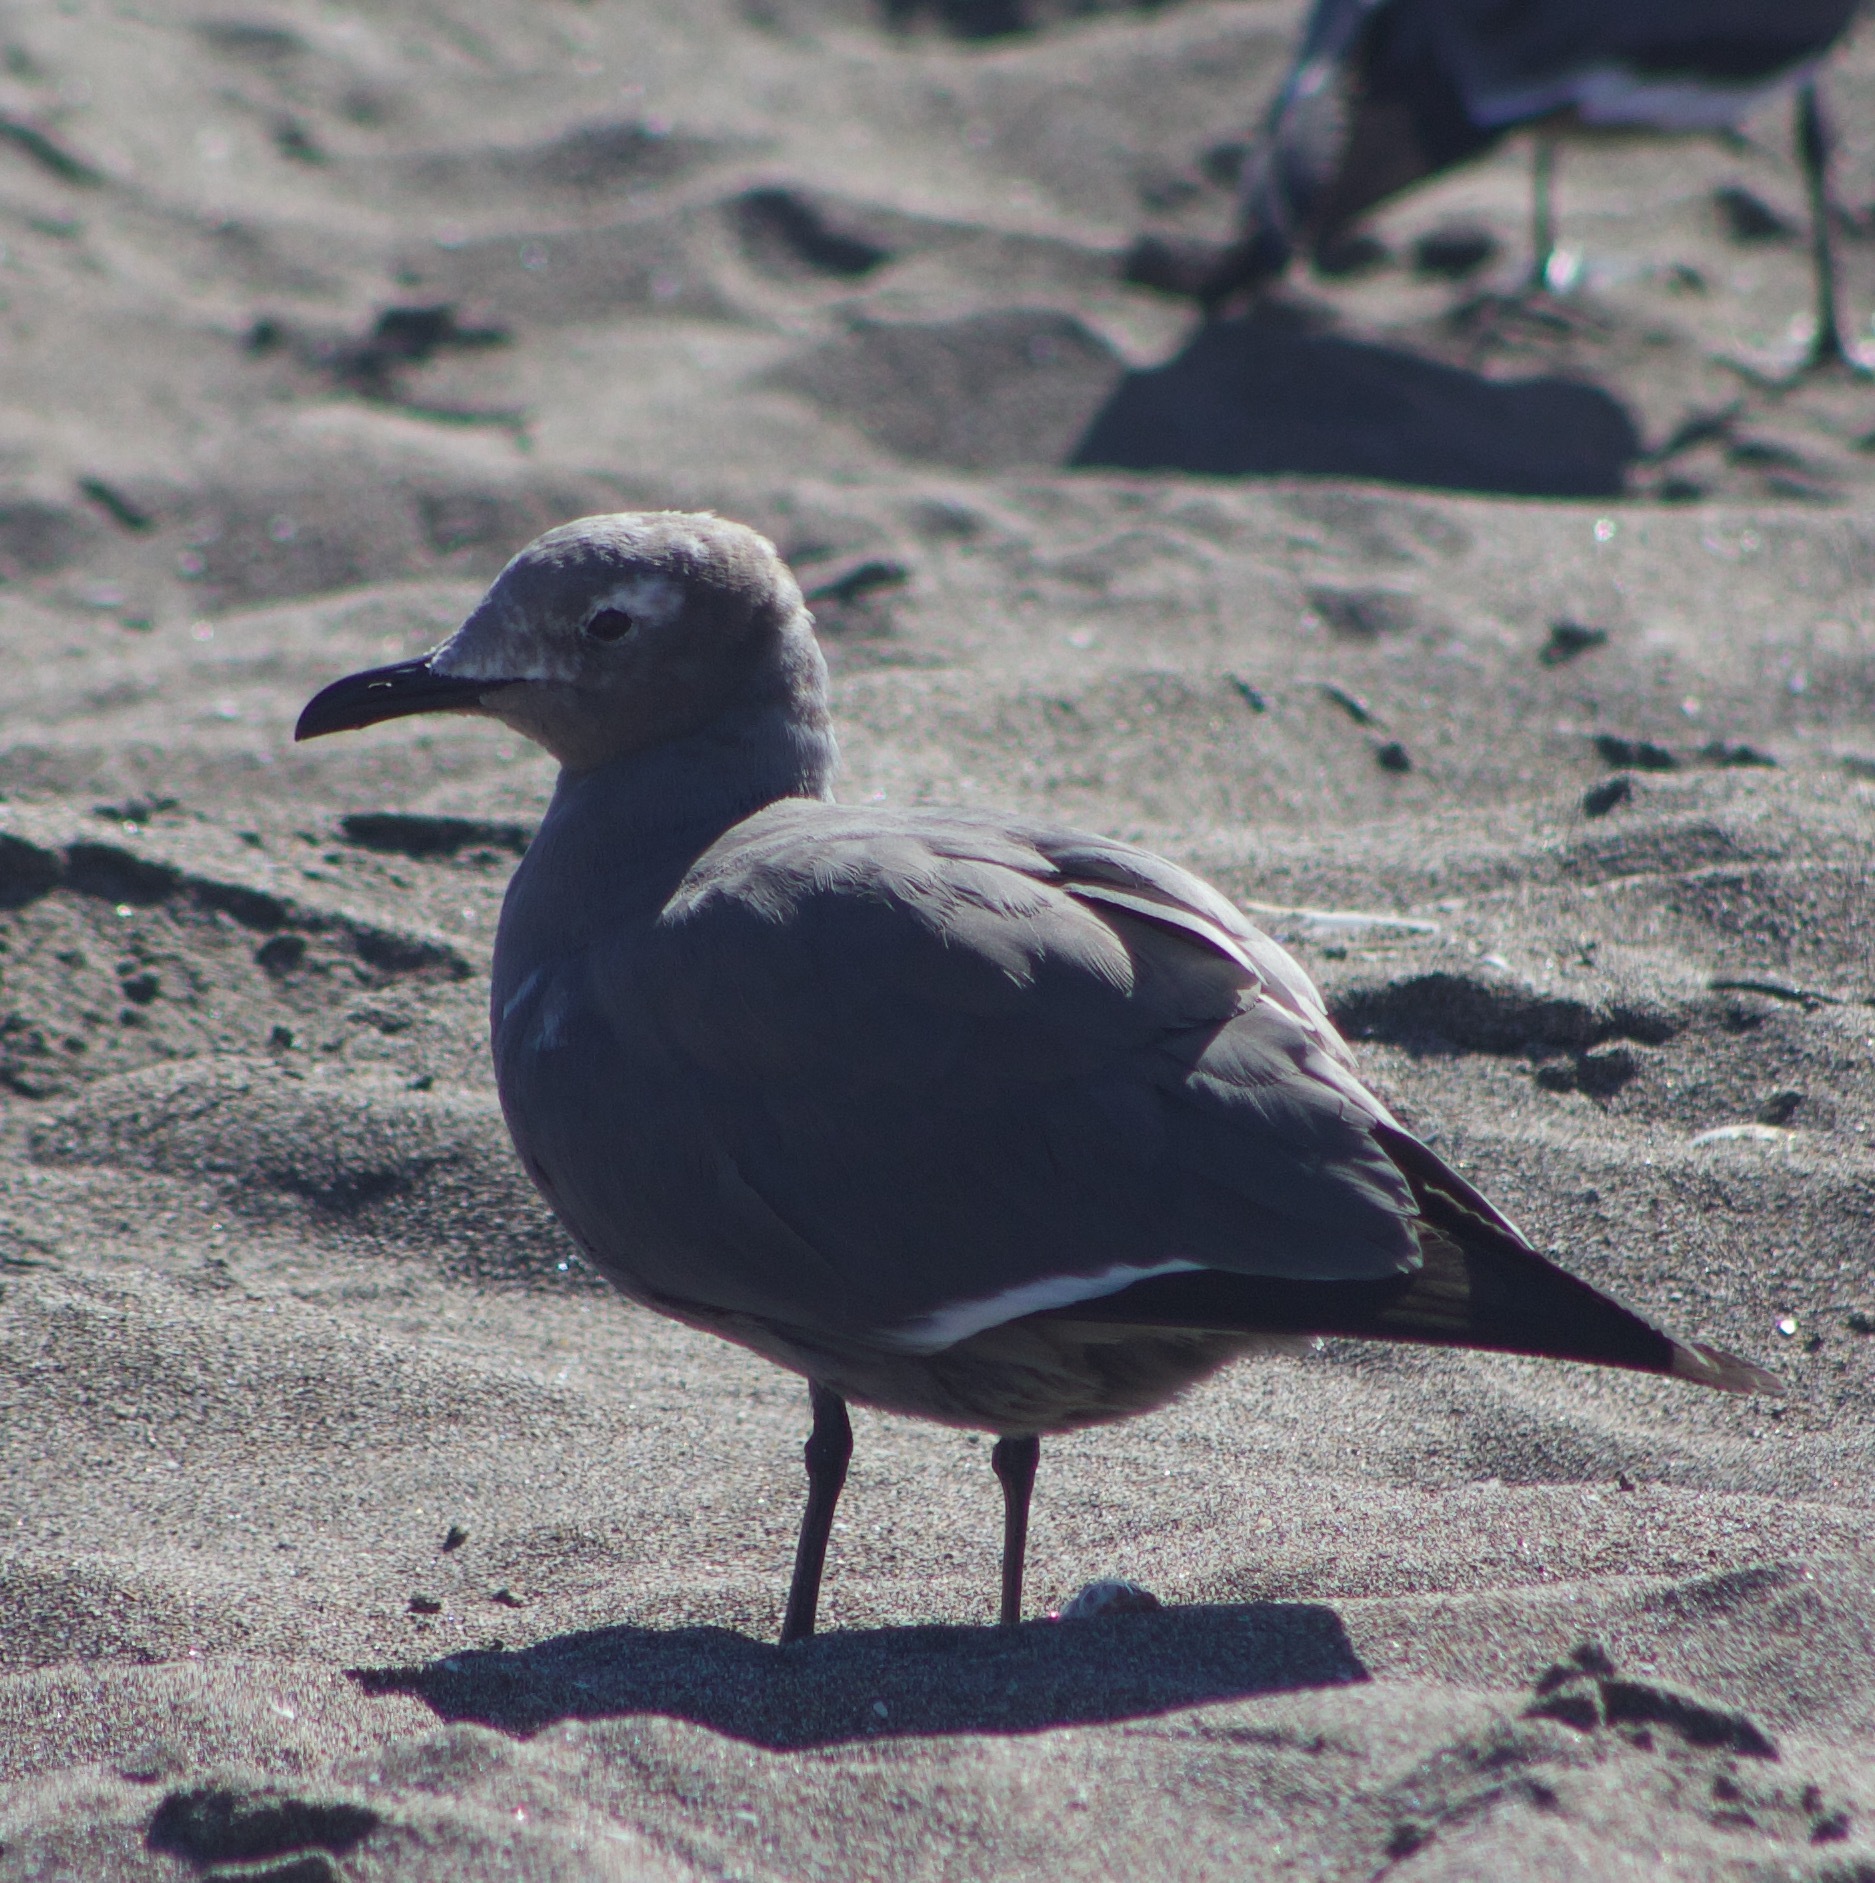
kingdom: Animalia
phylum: Chordata
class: Aves
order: Charadriiformes
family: Laridae
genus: Leucophaeus
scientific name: Leucophaeus modestus
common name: Gray gull
